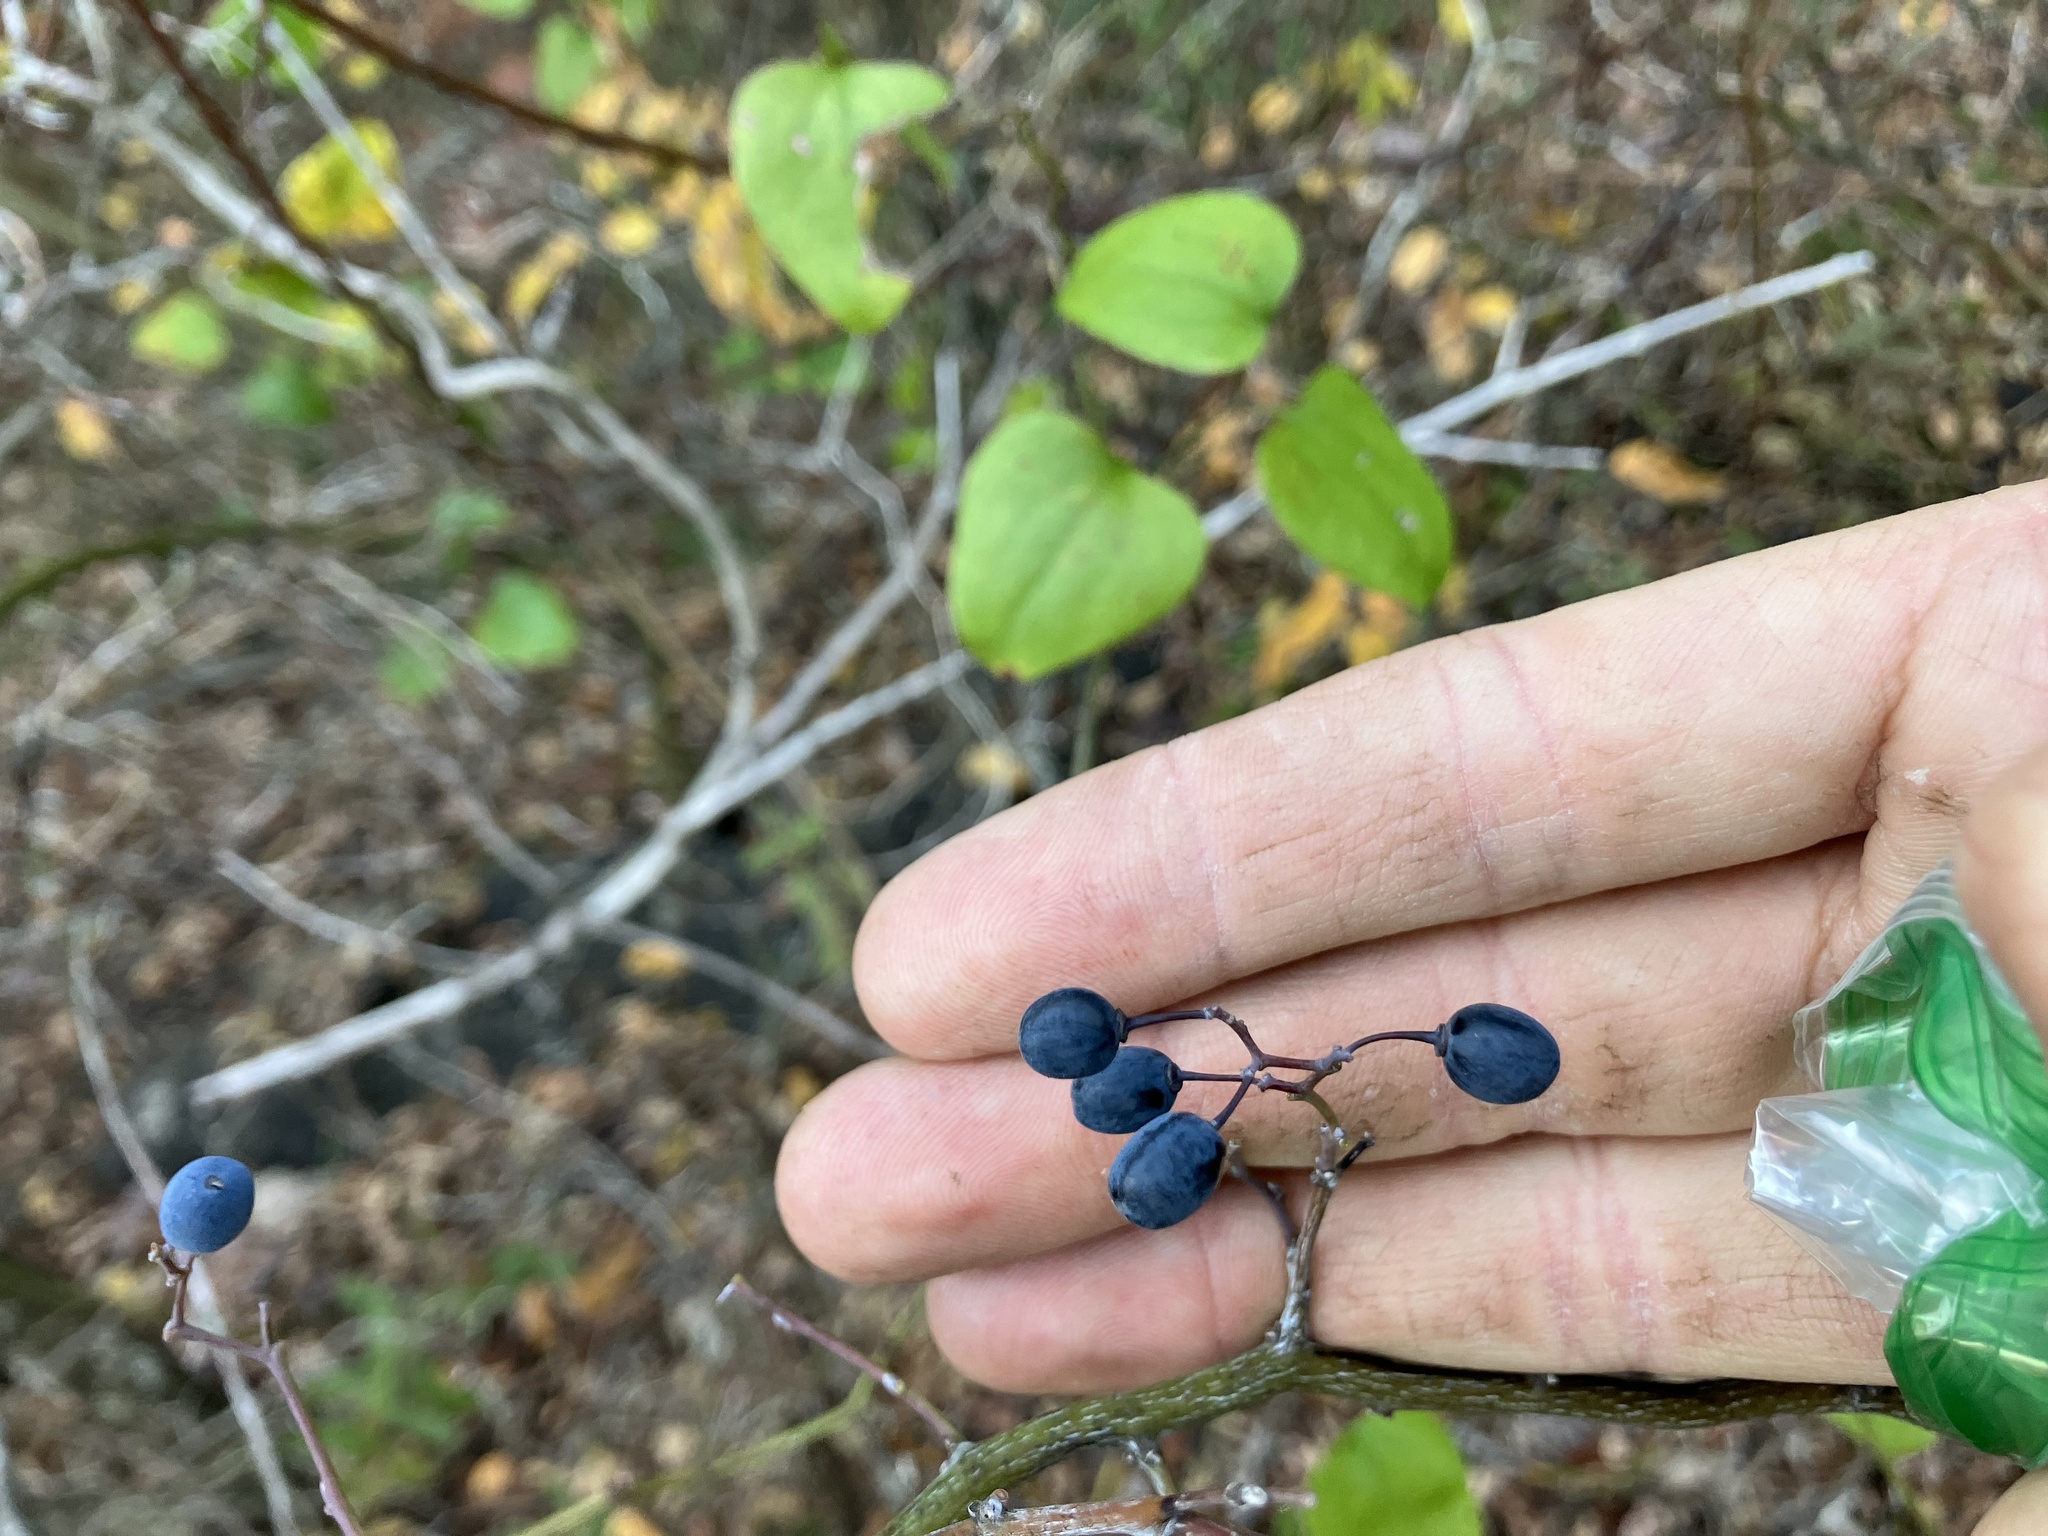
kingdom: Plantae
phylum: Tracheophyta
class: Magnoliopsida
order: Rosales
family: Rhamnaceae
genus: Berchemia
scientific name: Berchemia scandens
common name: Supplejack
